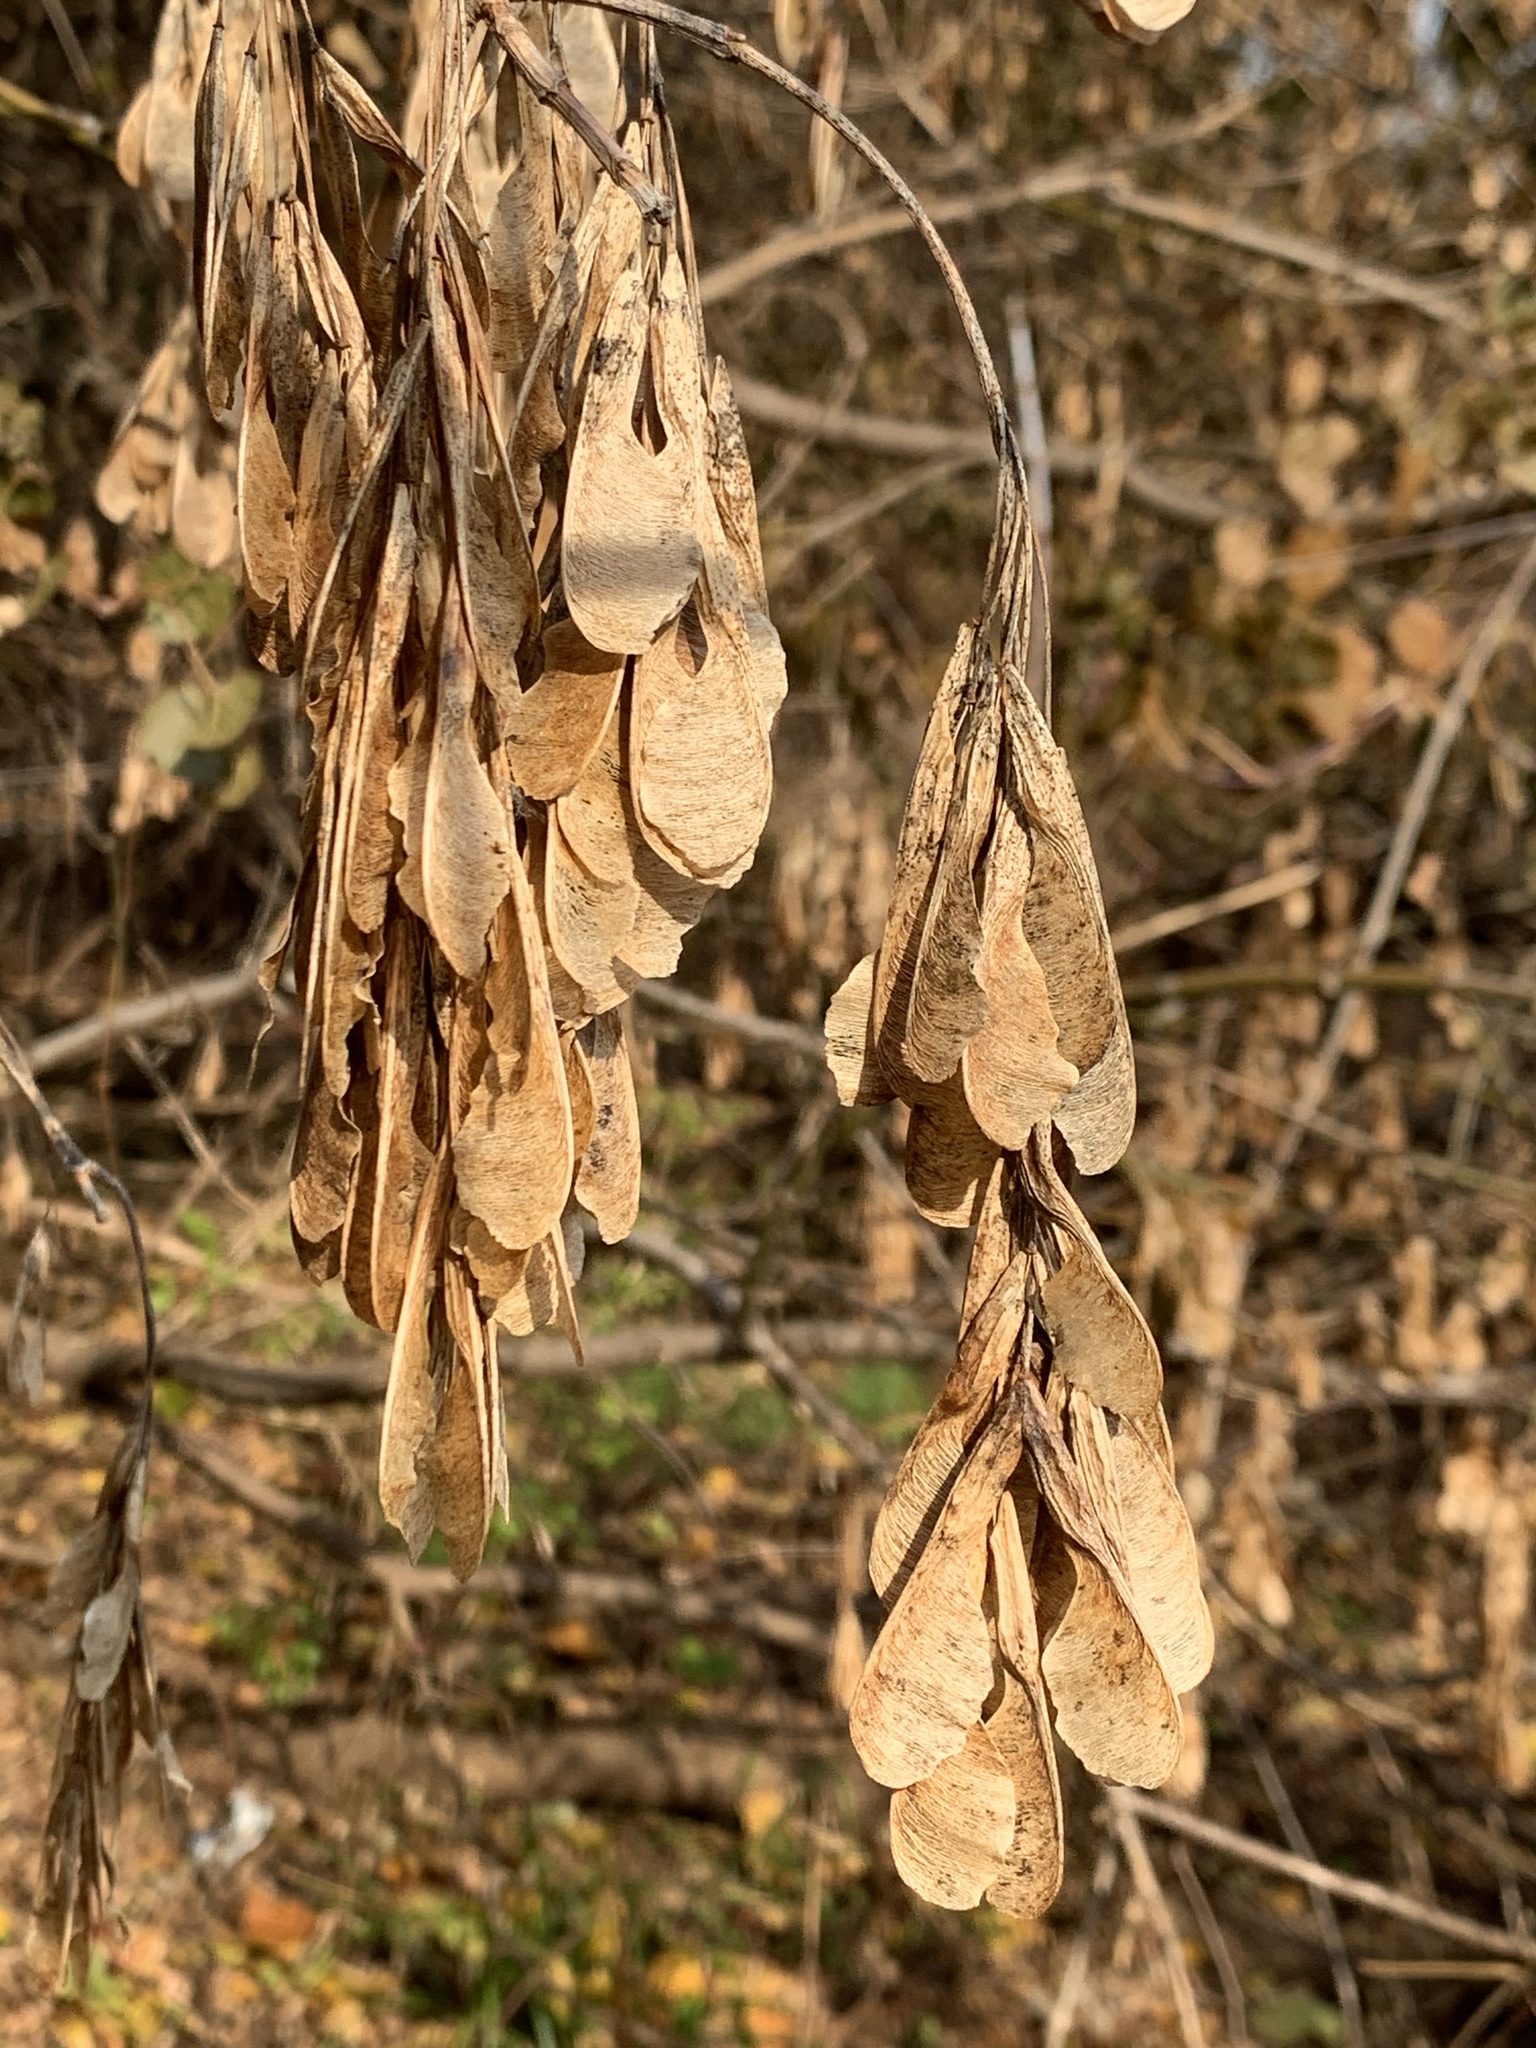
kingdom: Plantae
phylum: Tracheophyta
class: Magnoliopsida
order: Sapindales
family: Sapindaceae
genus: Acer
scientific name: Acer negundo
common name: Ashleaf maple
